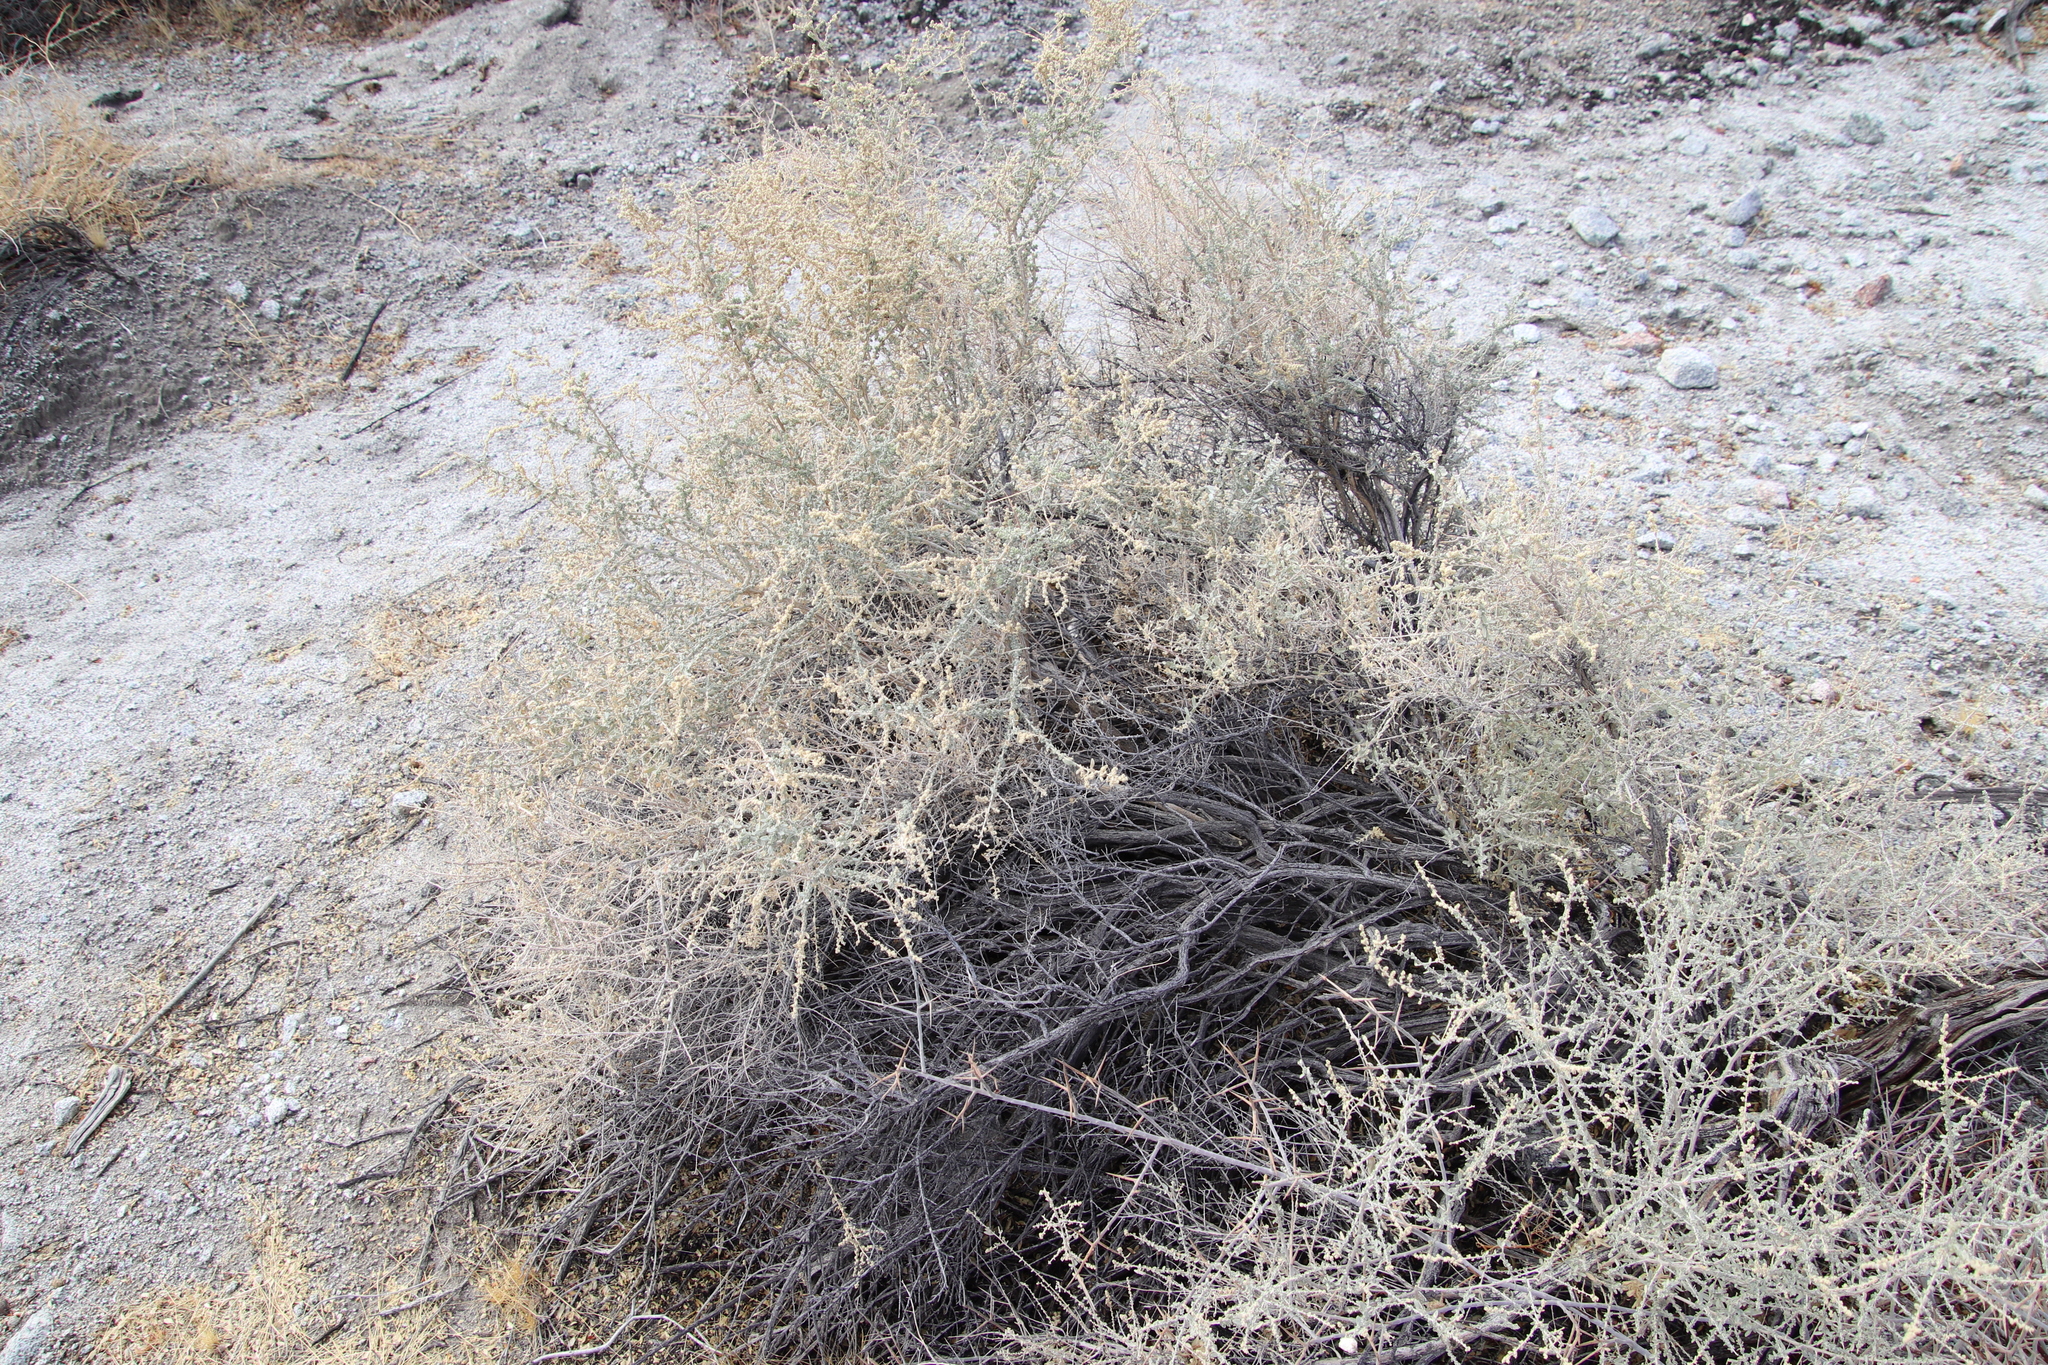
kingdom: Plantae
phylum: Tracheophyta
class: Magnoliopsida
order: Caryophyllales
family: Amaranthaceae
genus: Atriplex
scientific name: Atriplex polycarpa
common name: Desert saltbush
